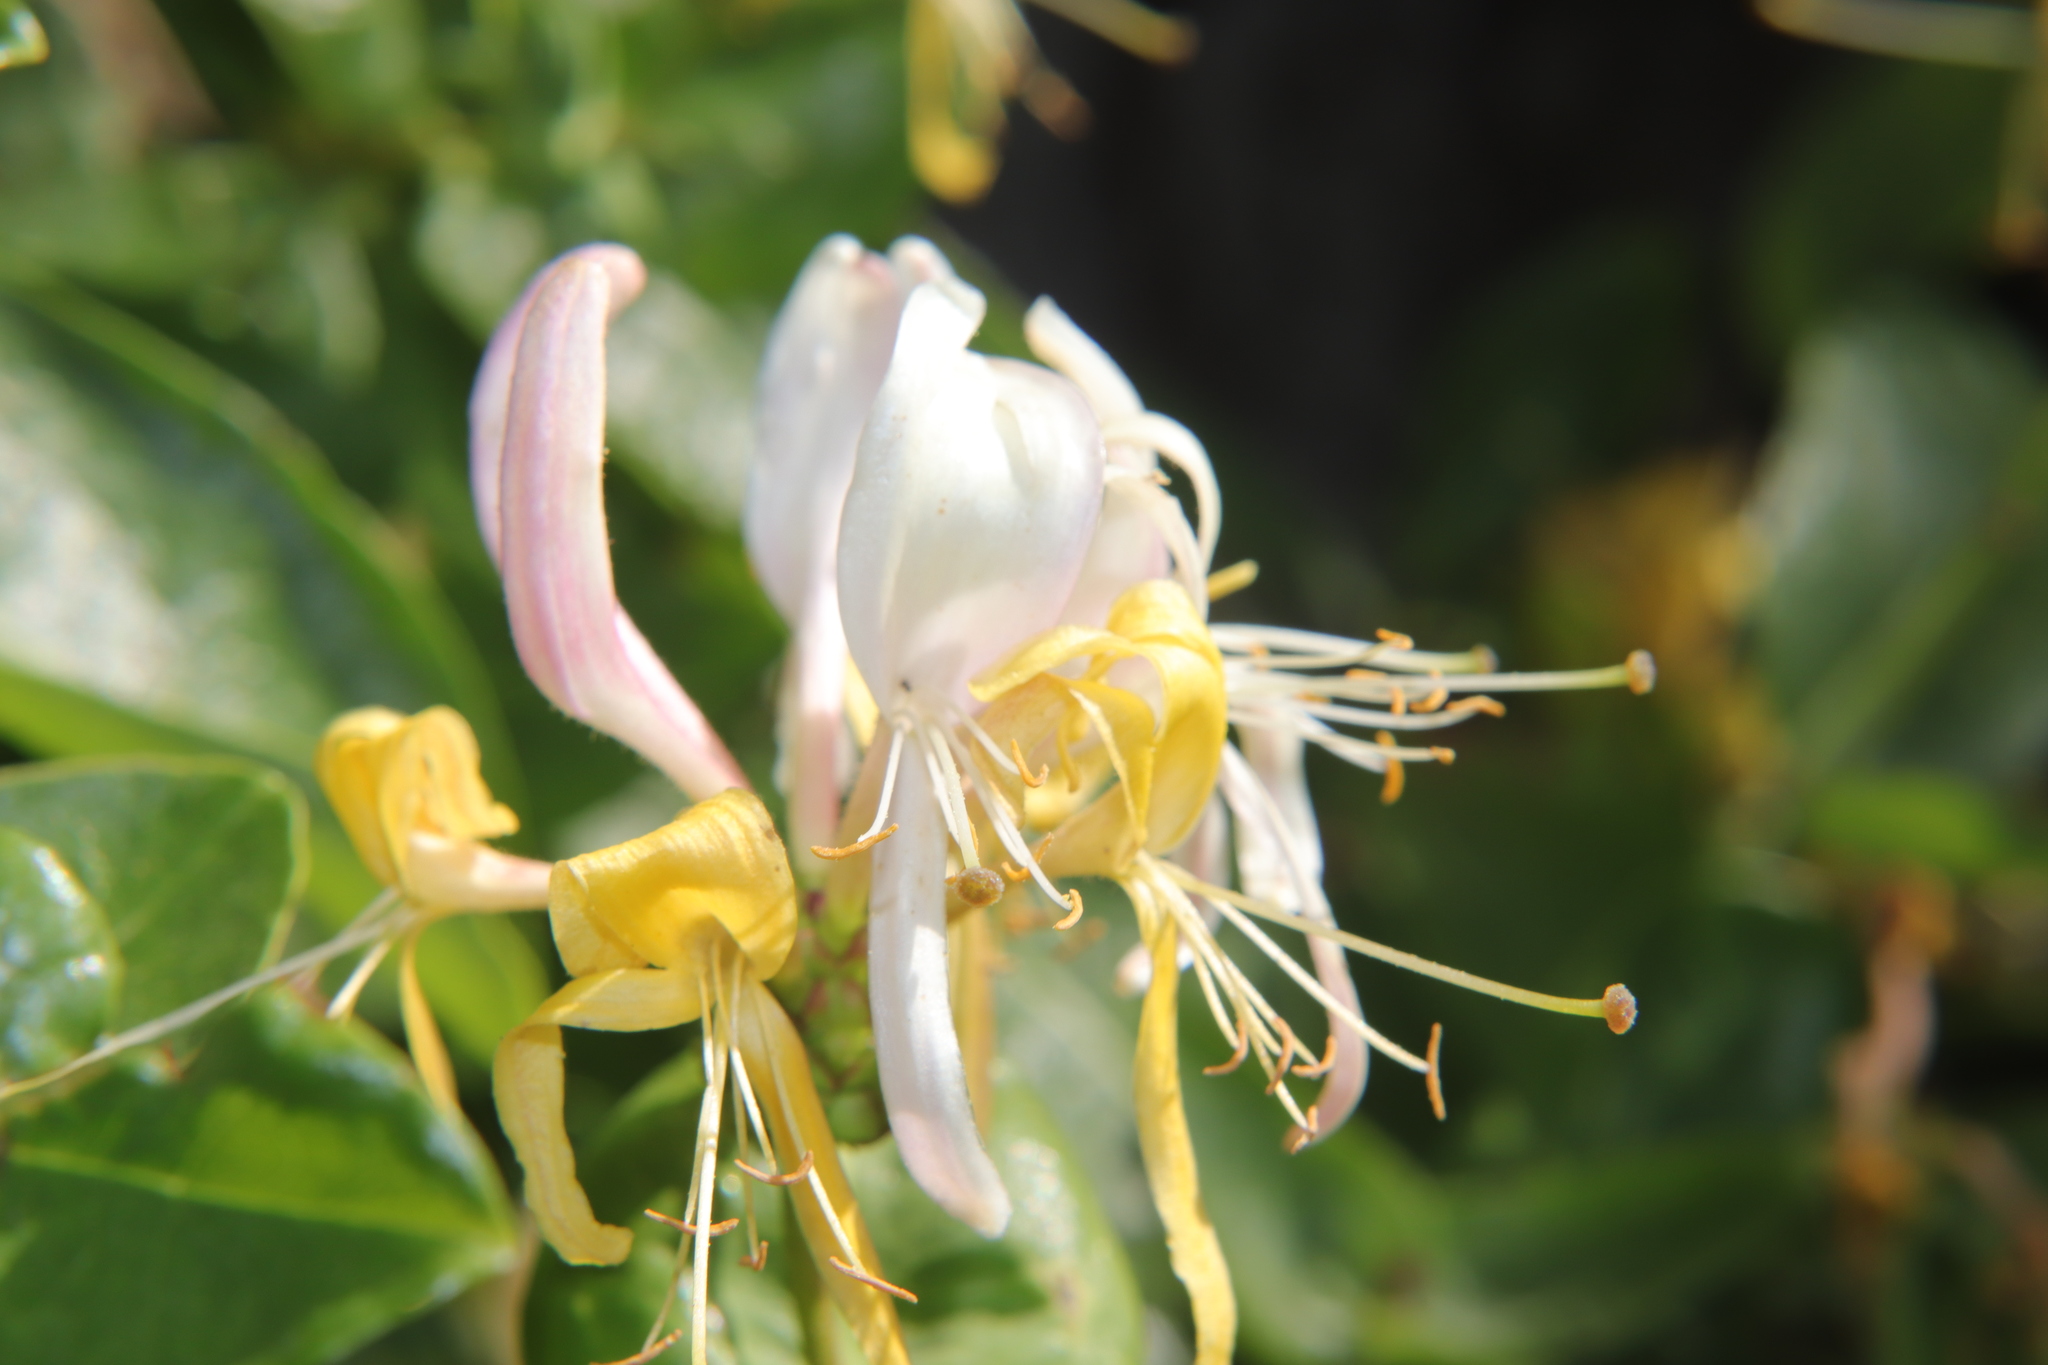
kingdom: Plantae
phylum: Tracheophyta
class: Magnoliopsida
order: Dipsacales
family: Caprifoliaceae
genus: Lonicera
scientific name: Lonicera japonica
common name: Japanese honeysuckle
